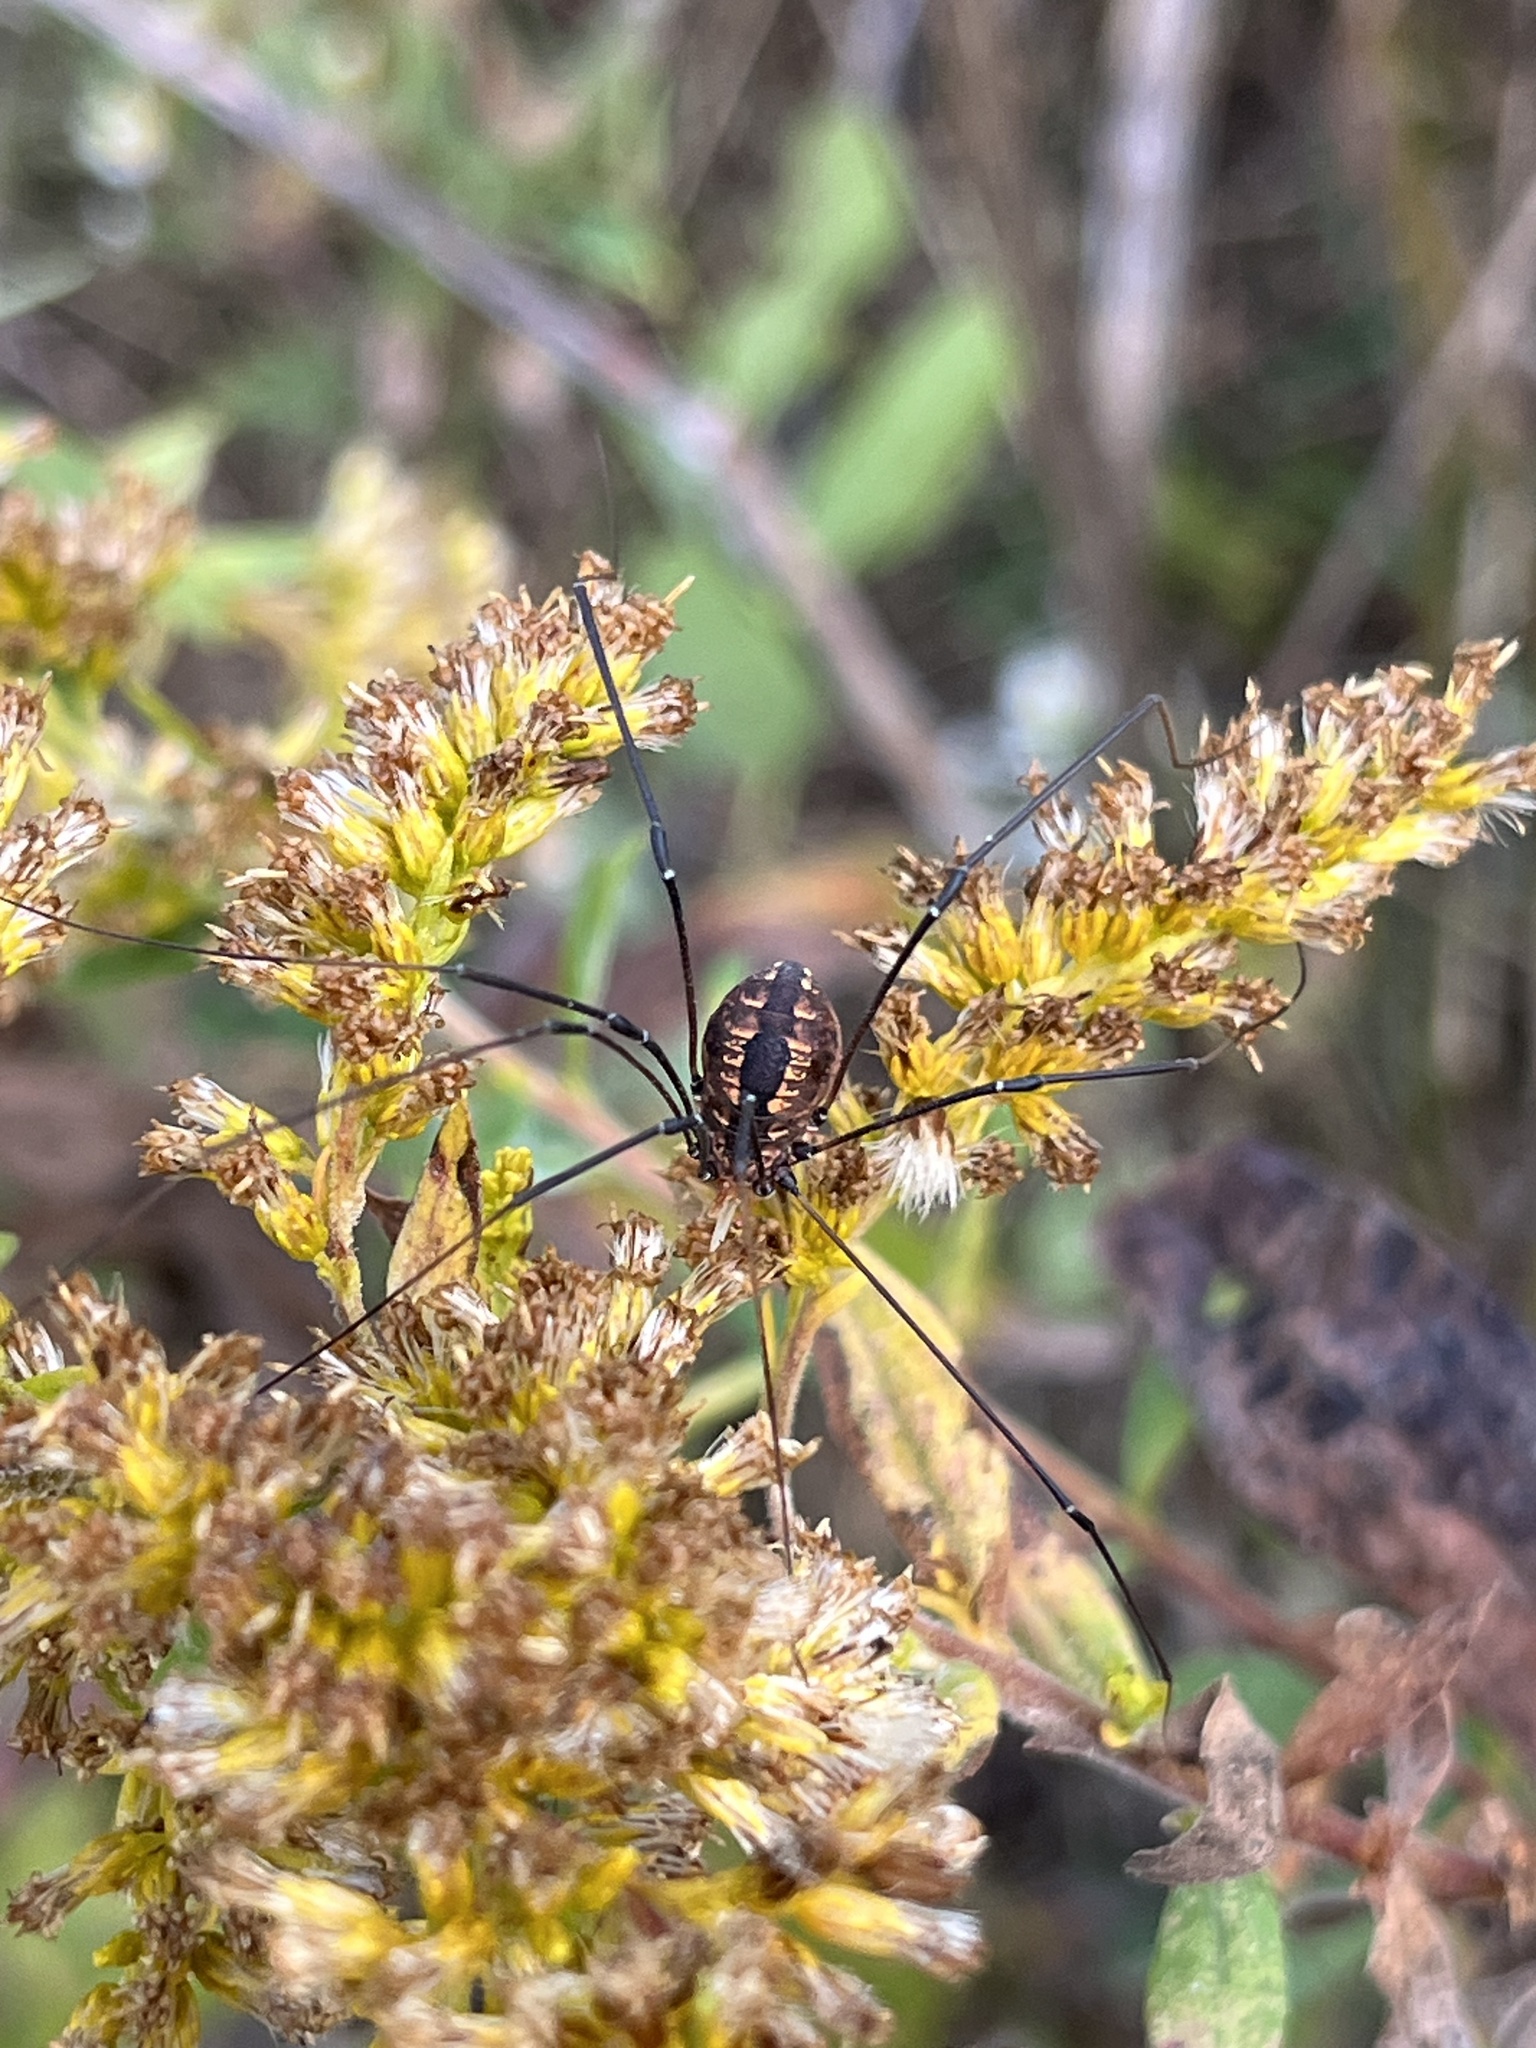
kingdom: Animalia
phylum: Arthropoda
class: Arachnida
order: Opiliones
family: Sclerosomatidae
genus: Leiobunum
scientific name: Leiobunum vittatum
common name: Eastern harvestman
